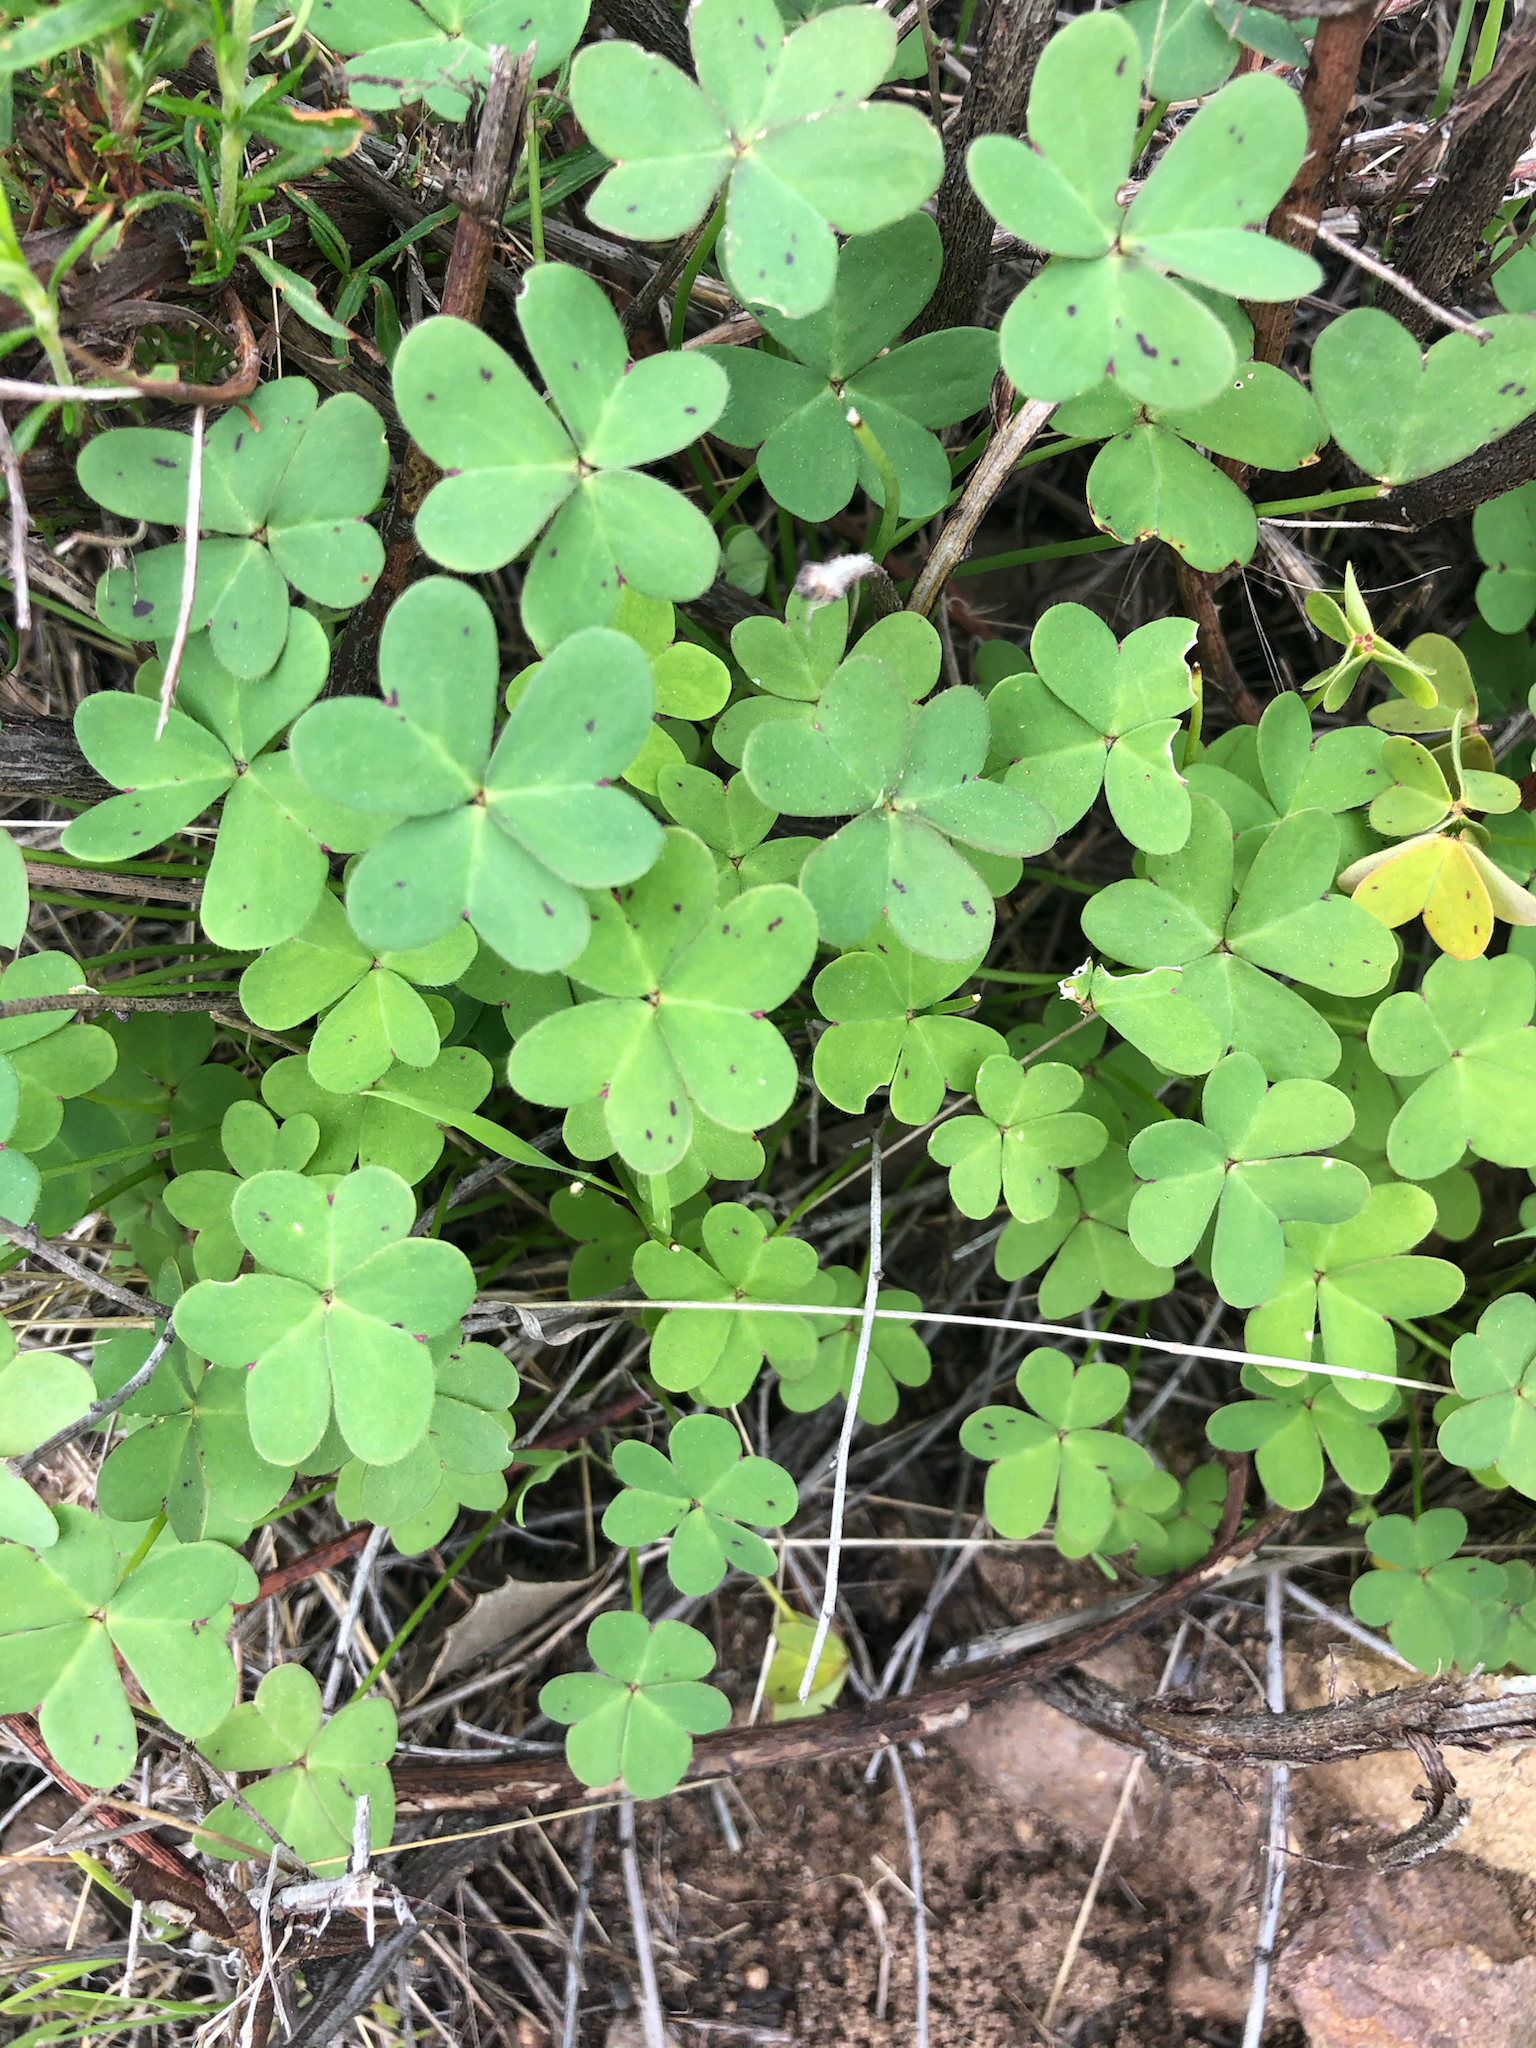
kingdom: Plantae
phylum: Tracheophyta
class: Magnoliopsida
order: Oxalidales
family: Oxalidaceae
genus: Oxalis
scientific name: Oxalis pes-caprae
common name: Bermuda-buttercup
